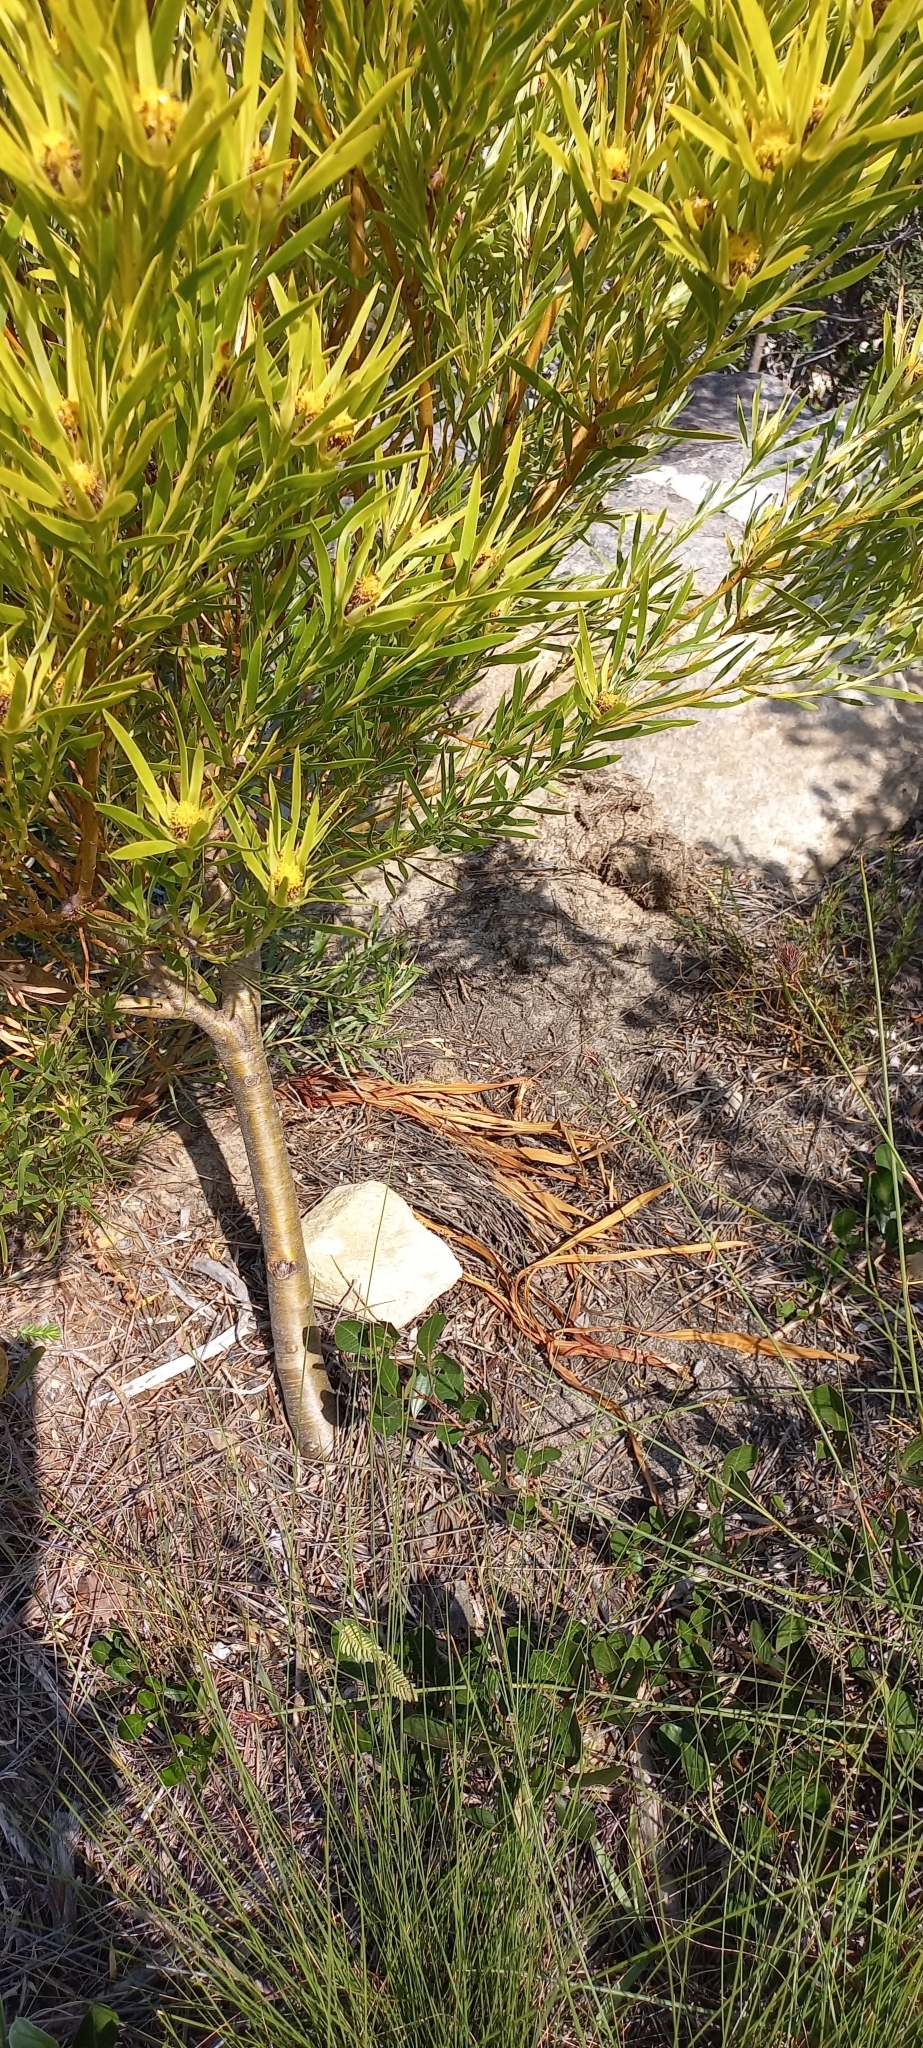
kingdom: Plantae
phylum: Tracheophyta
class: Magnoliopsida
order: Proteales
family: Proteaceae
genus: Leucadendron
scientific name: Leucadendron xanthoconus
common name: Sickle-leaf conebush
